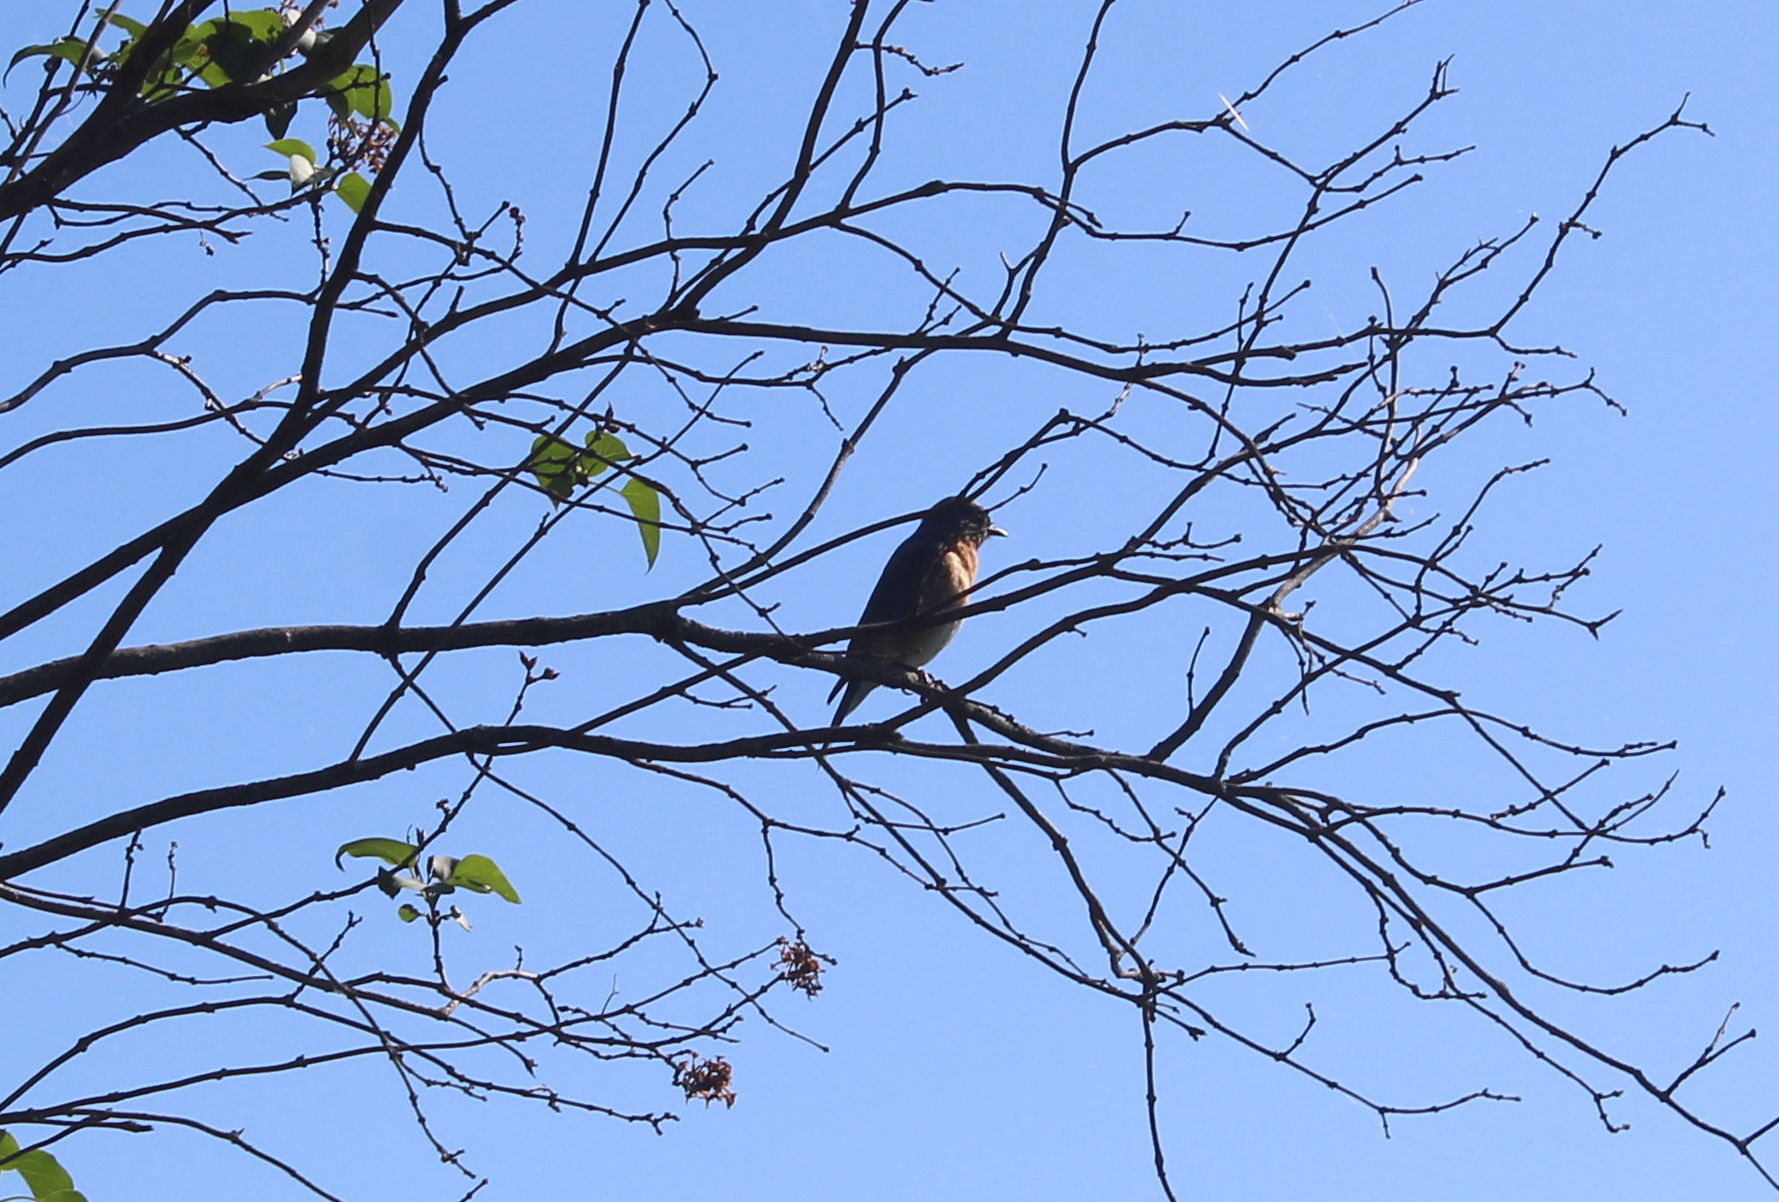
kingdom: Animalia
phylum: Chordata
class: Aves
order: Passeriformes
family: Turdidae
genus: Sialia
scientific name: Sialia sialis
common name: Eastern bluebird
